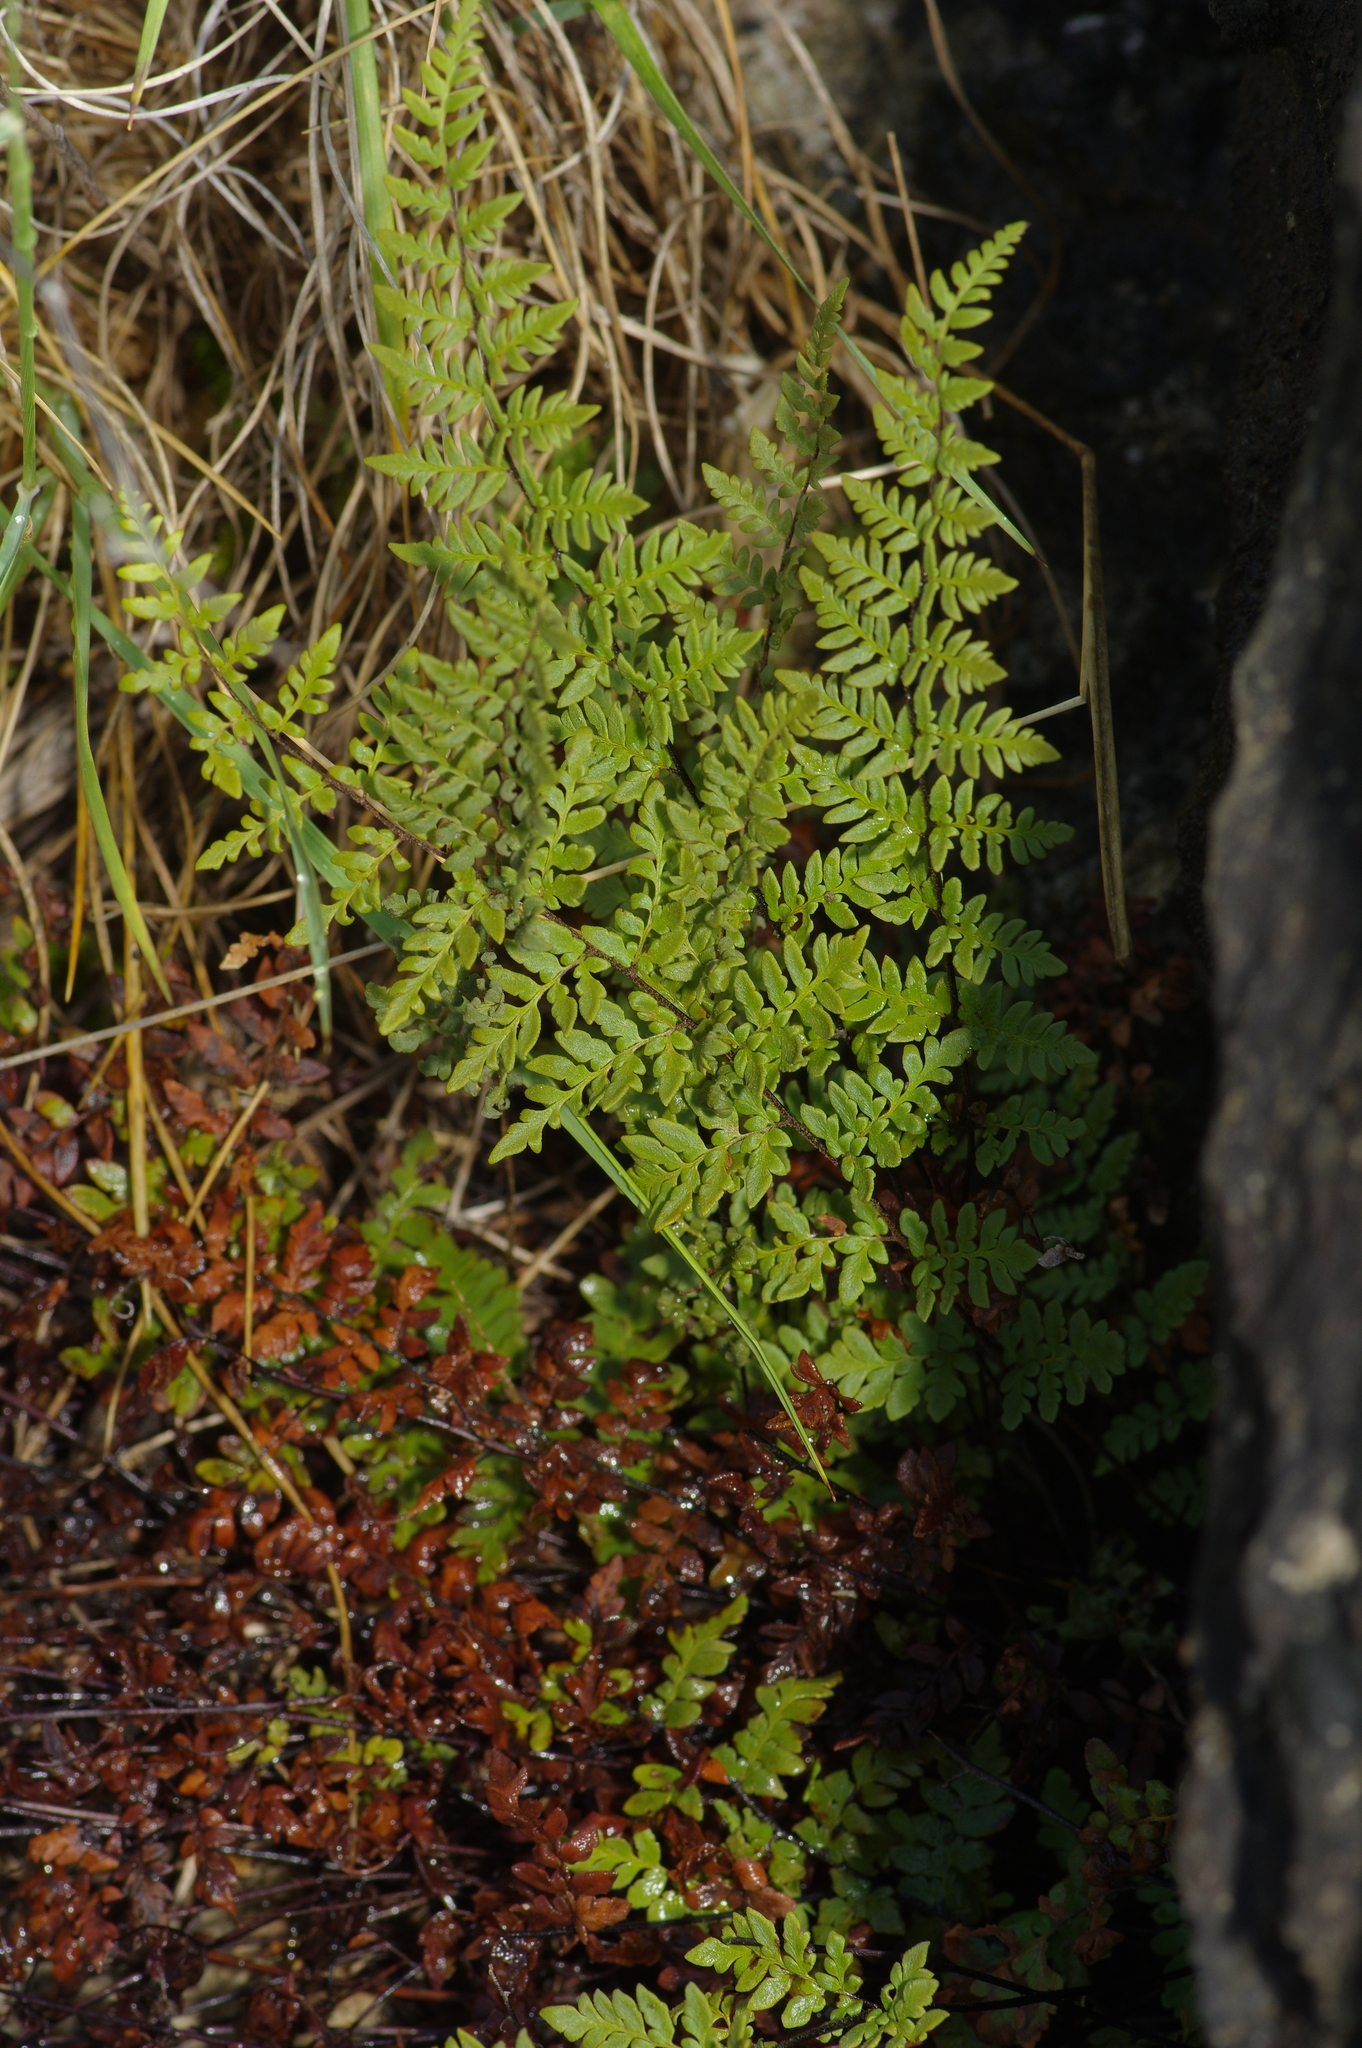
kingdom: Plantae
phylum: Tracheophyta
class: Polypodiopsida
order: Polypodiales
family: Pteridaceae
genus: Myriopteris
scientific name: Myriopteris alabamensis
